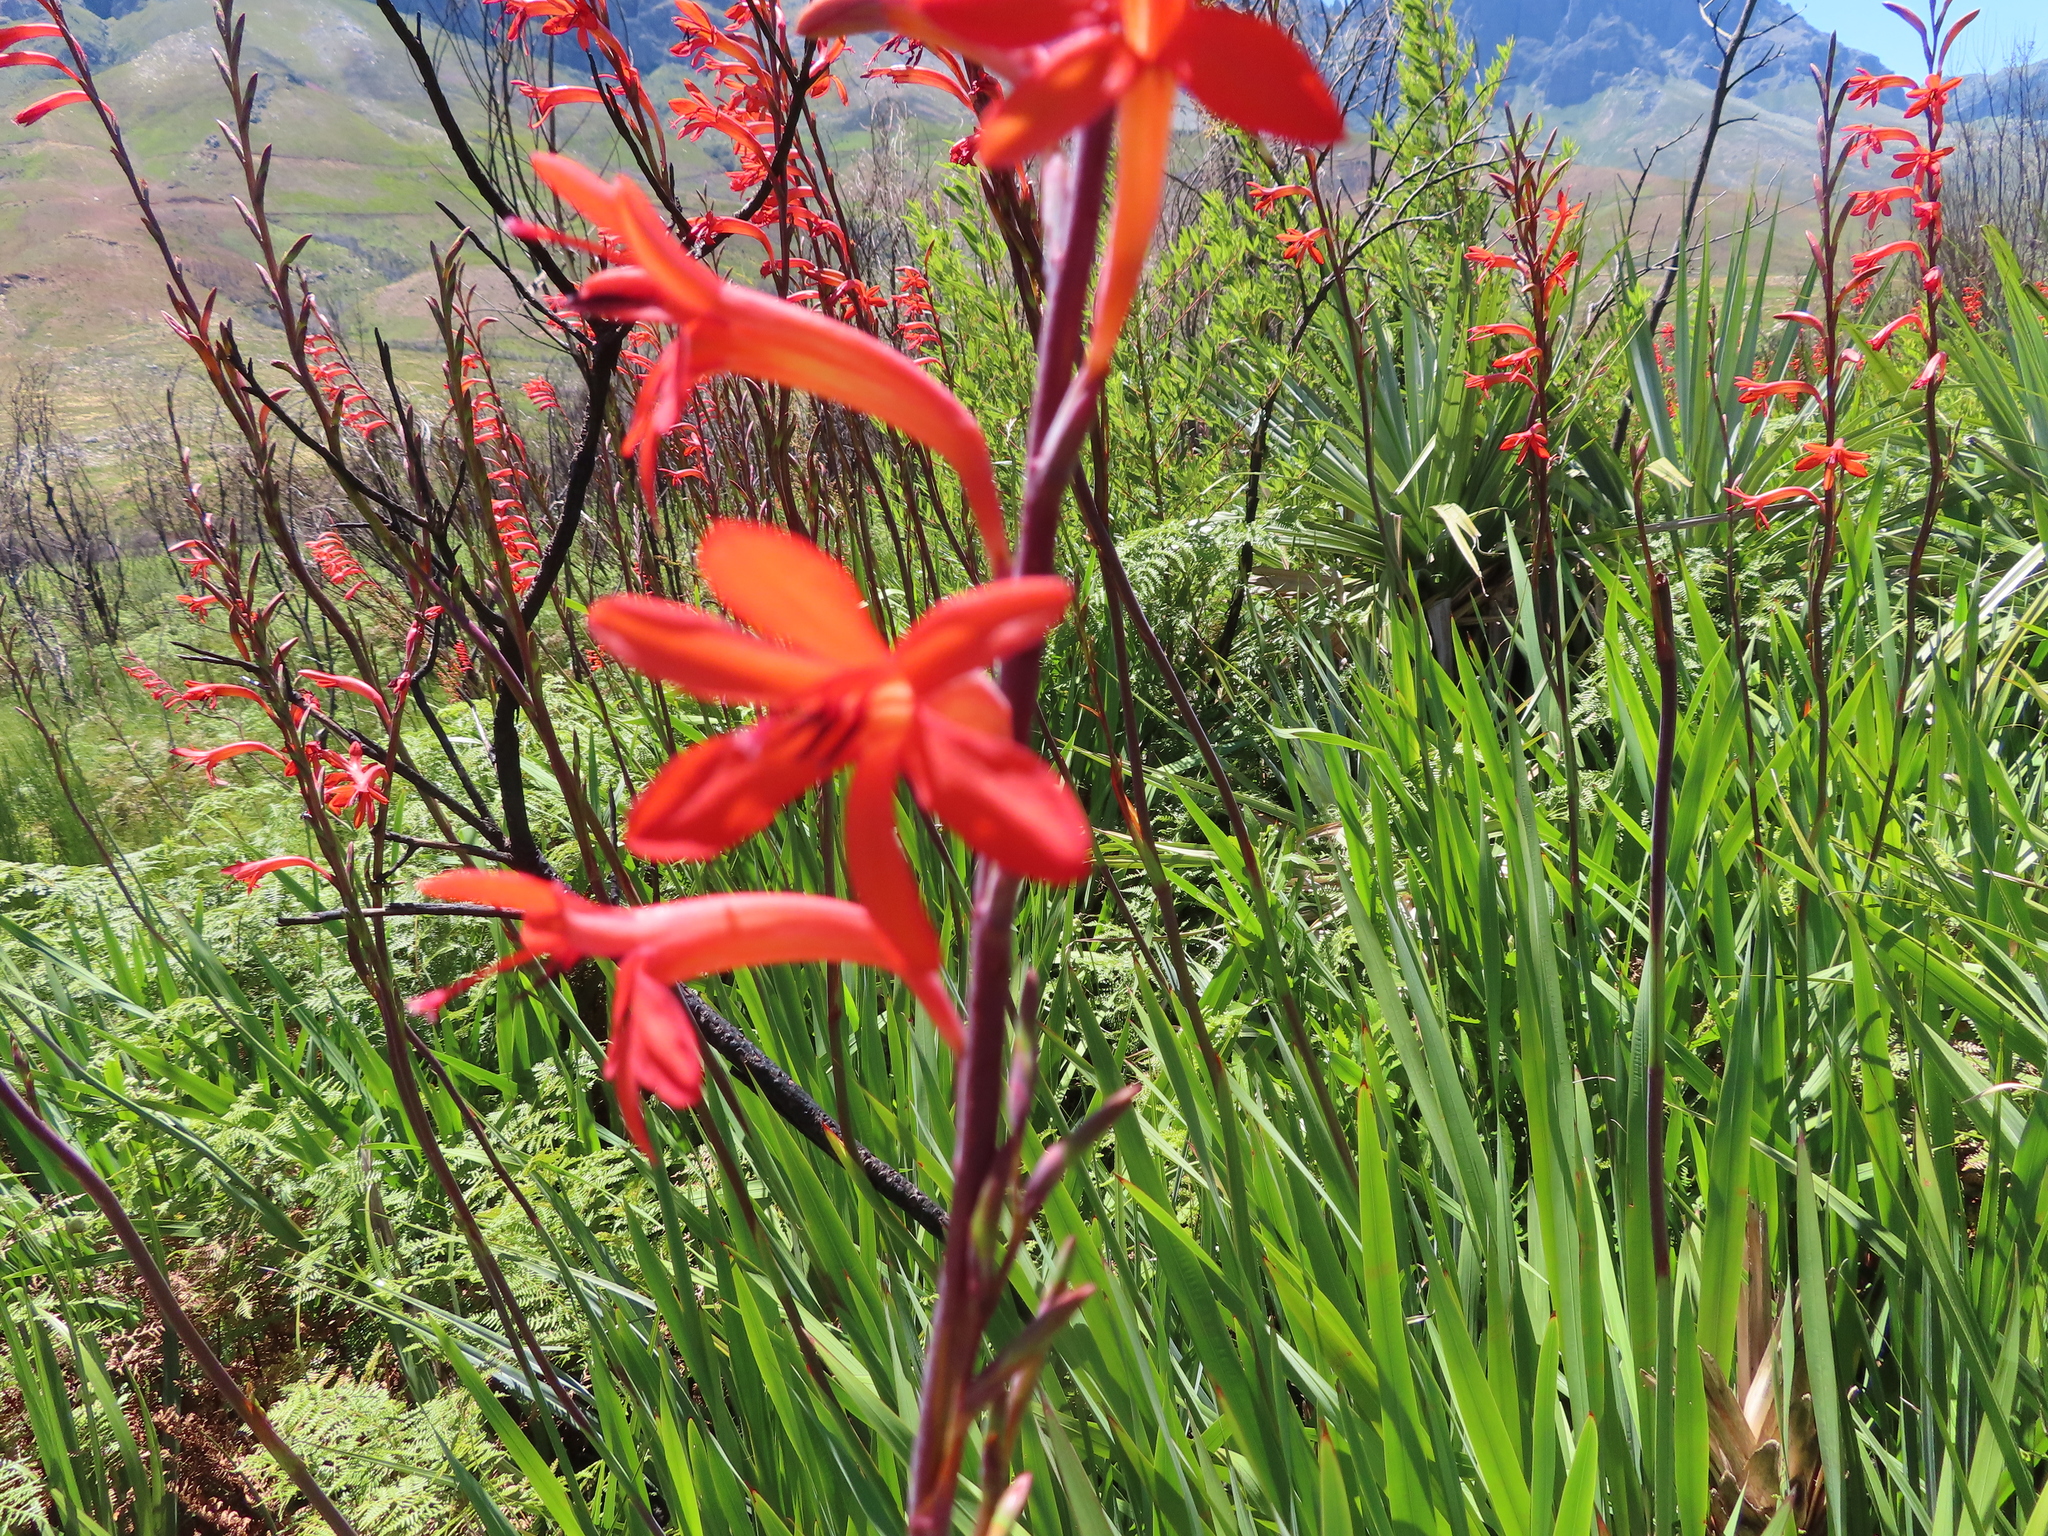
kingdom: Plantae
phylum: Tracheophyta
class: Liliopsida
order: Asparagales
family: Iridaceae
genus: Watsonia
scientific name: Watsonia angusta
